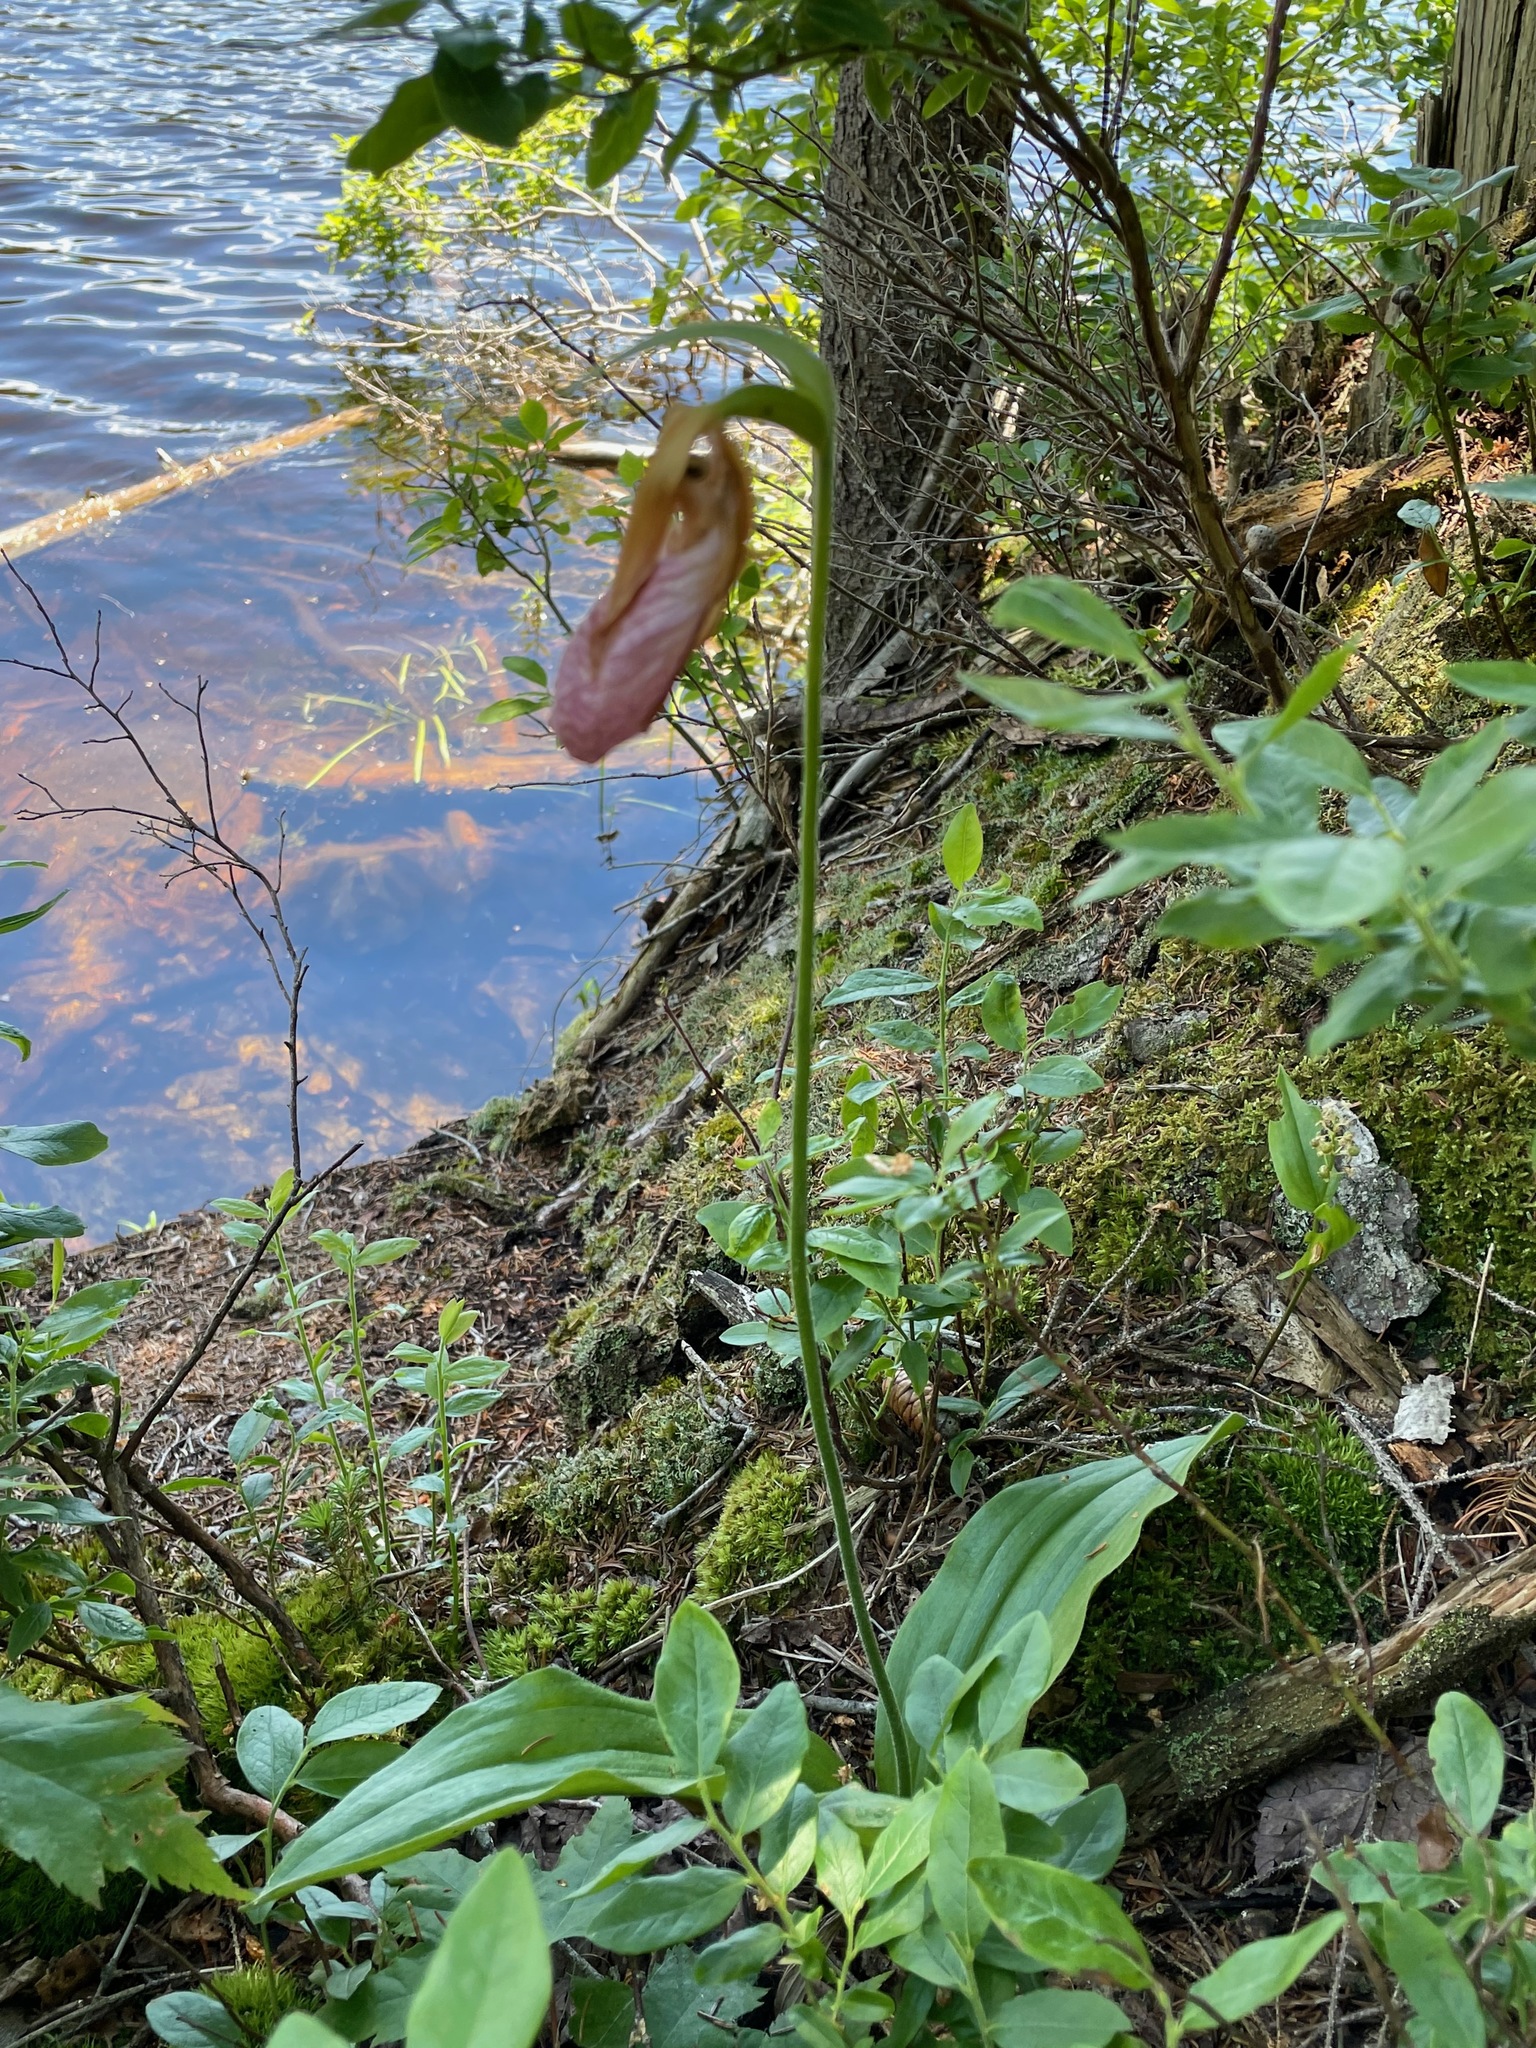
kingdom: Plantae
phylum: Tracheophyta
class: Liliopsida
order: Asparagales
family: Orchidaceae
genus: Cypripedium
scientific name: Cypripedium acaule
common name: Pink lady's-slipper
